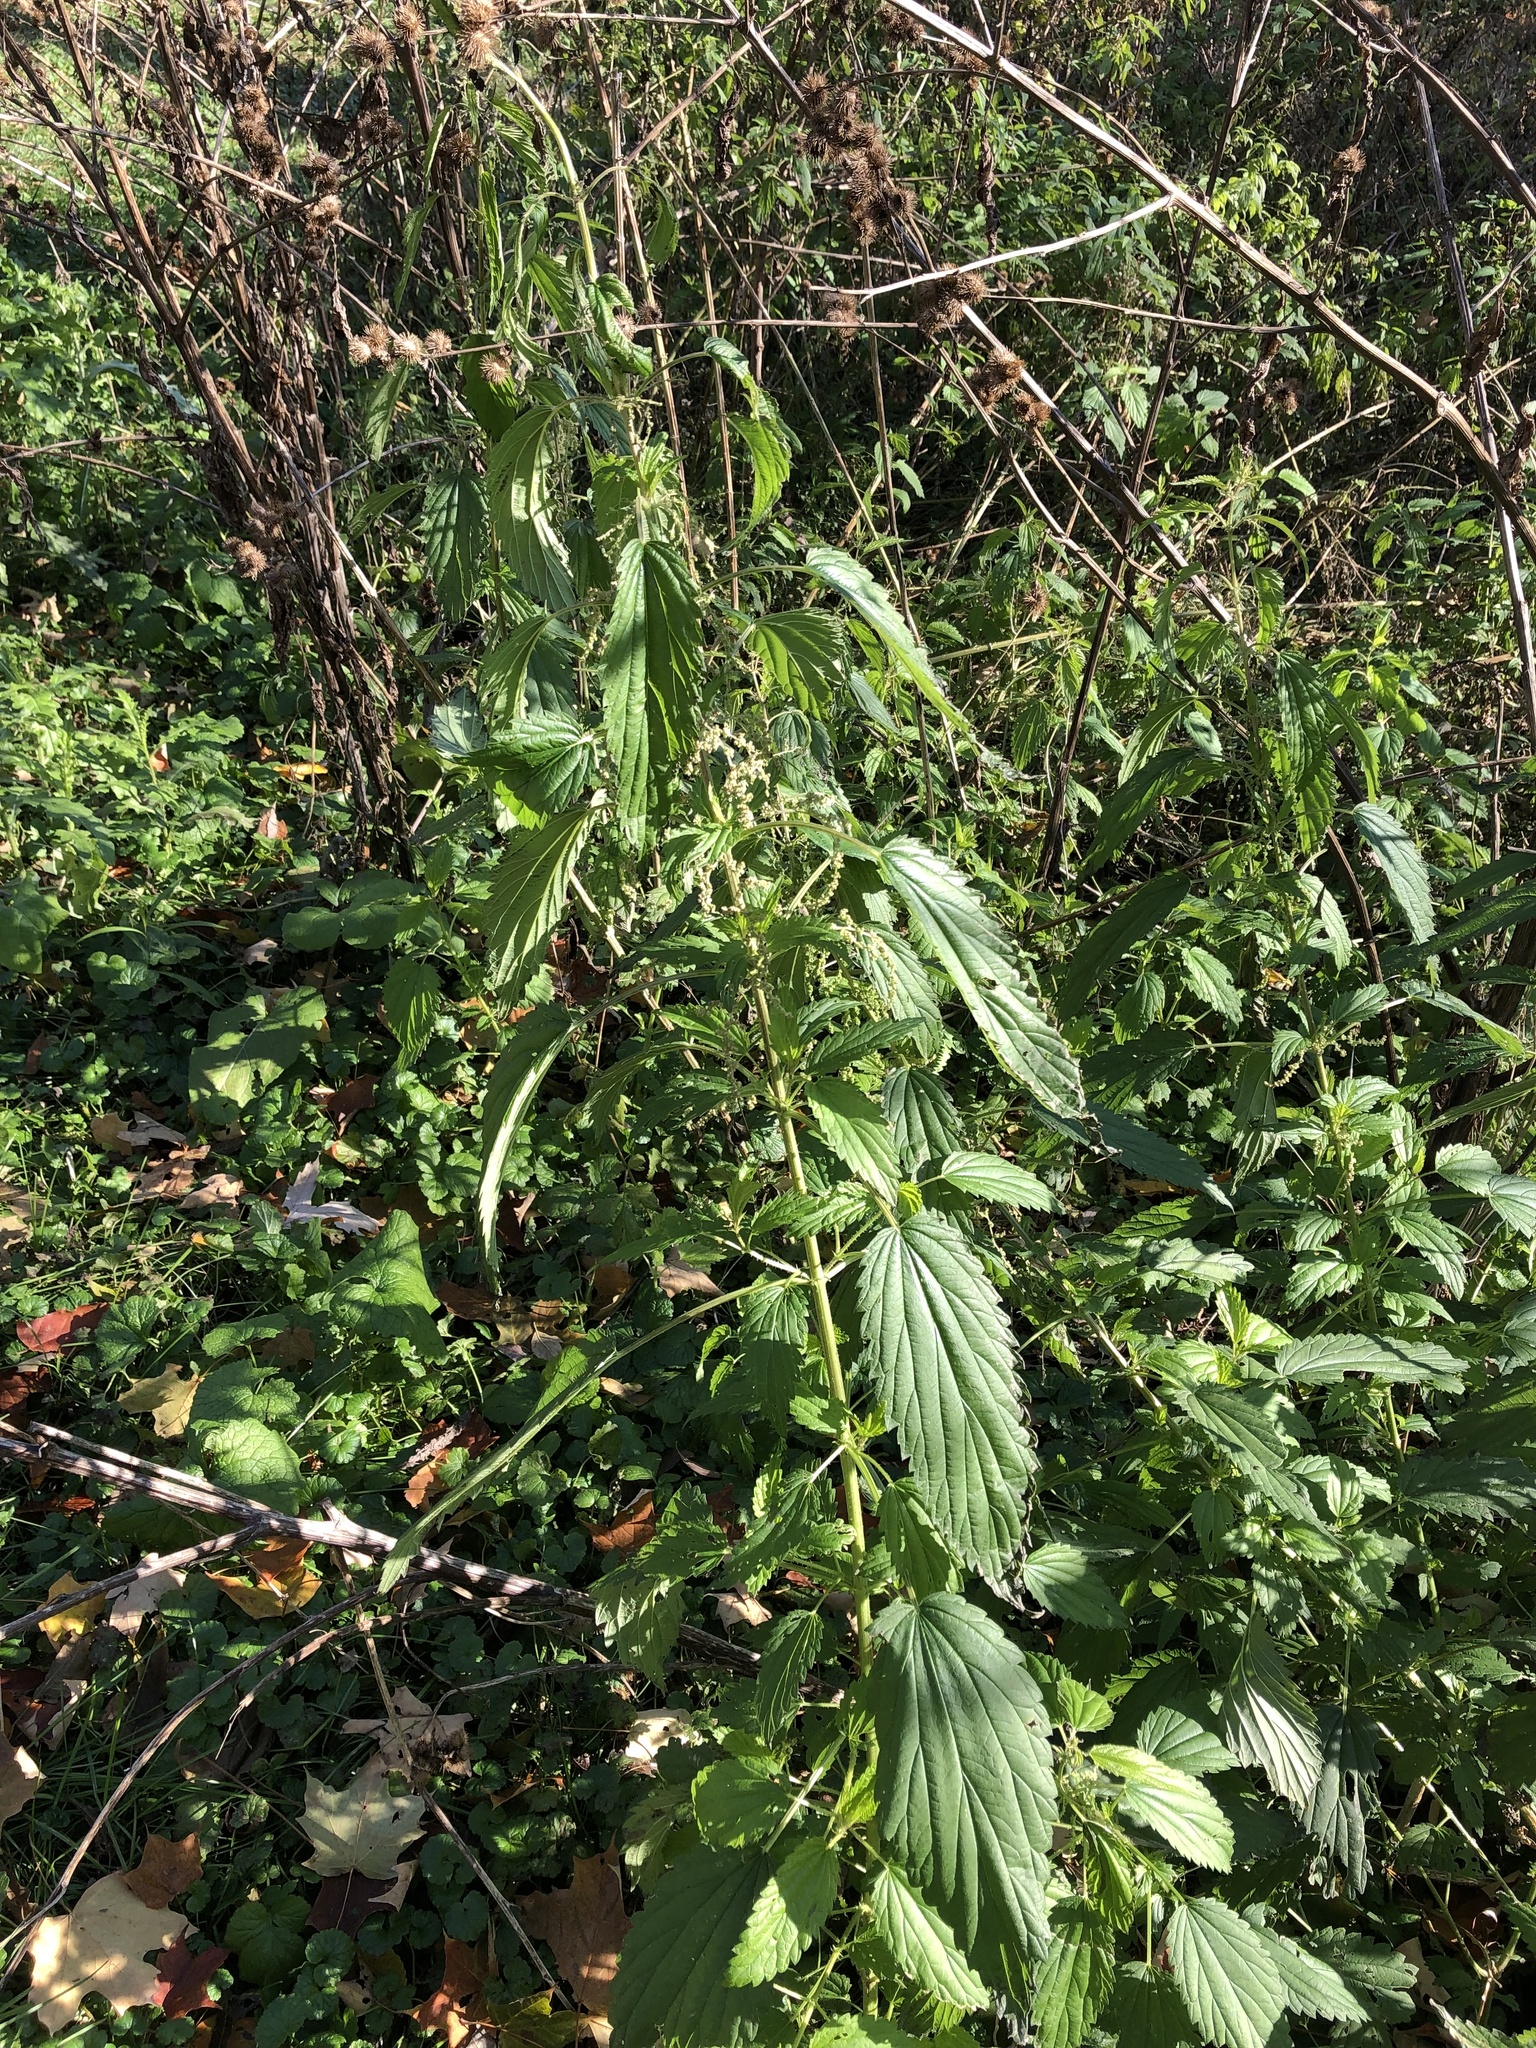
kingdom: Plantae
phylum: Tracheophyta
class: Magnoliopsida
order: Rosales
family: Urticaceae
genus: Urtica
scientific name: Urtica dioica
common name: Common nettle
